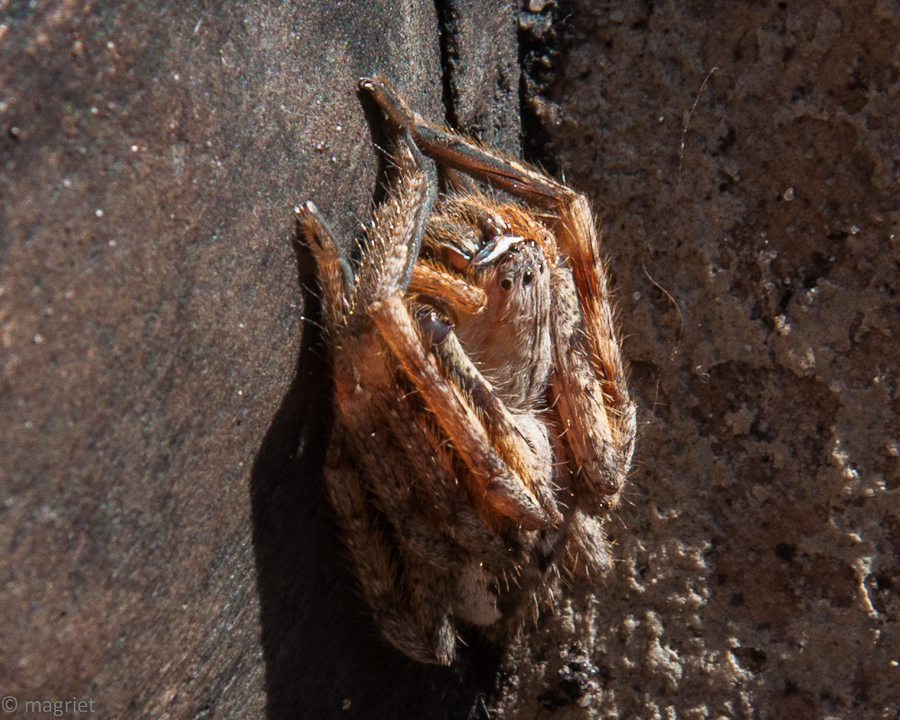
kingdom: Animalia
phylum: Arthropoda
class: Arachnida
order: Araneae
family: Sparassidae
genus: Palystes
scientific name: Palystes superciliosus
